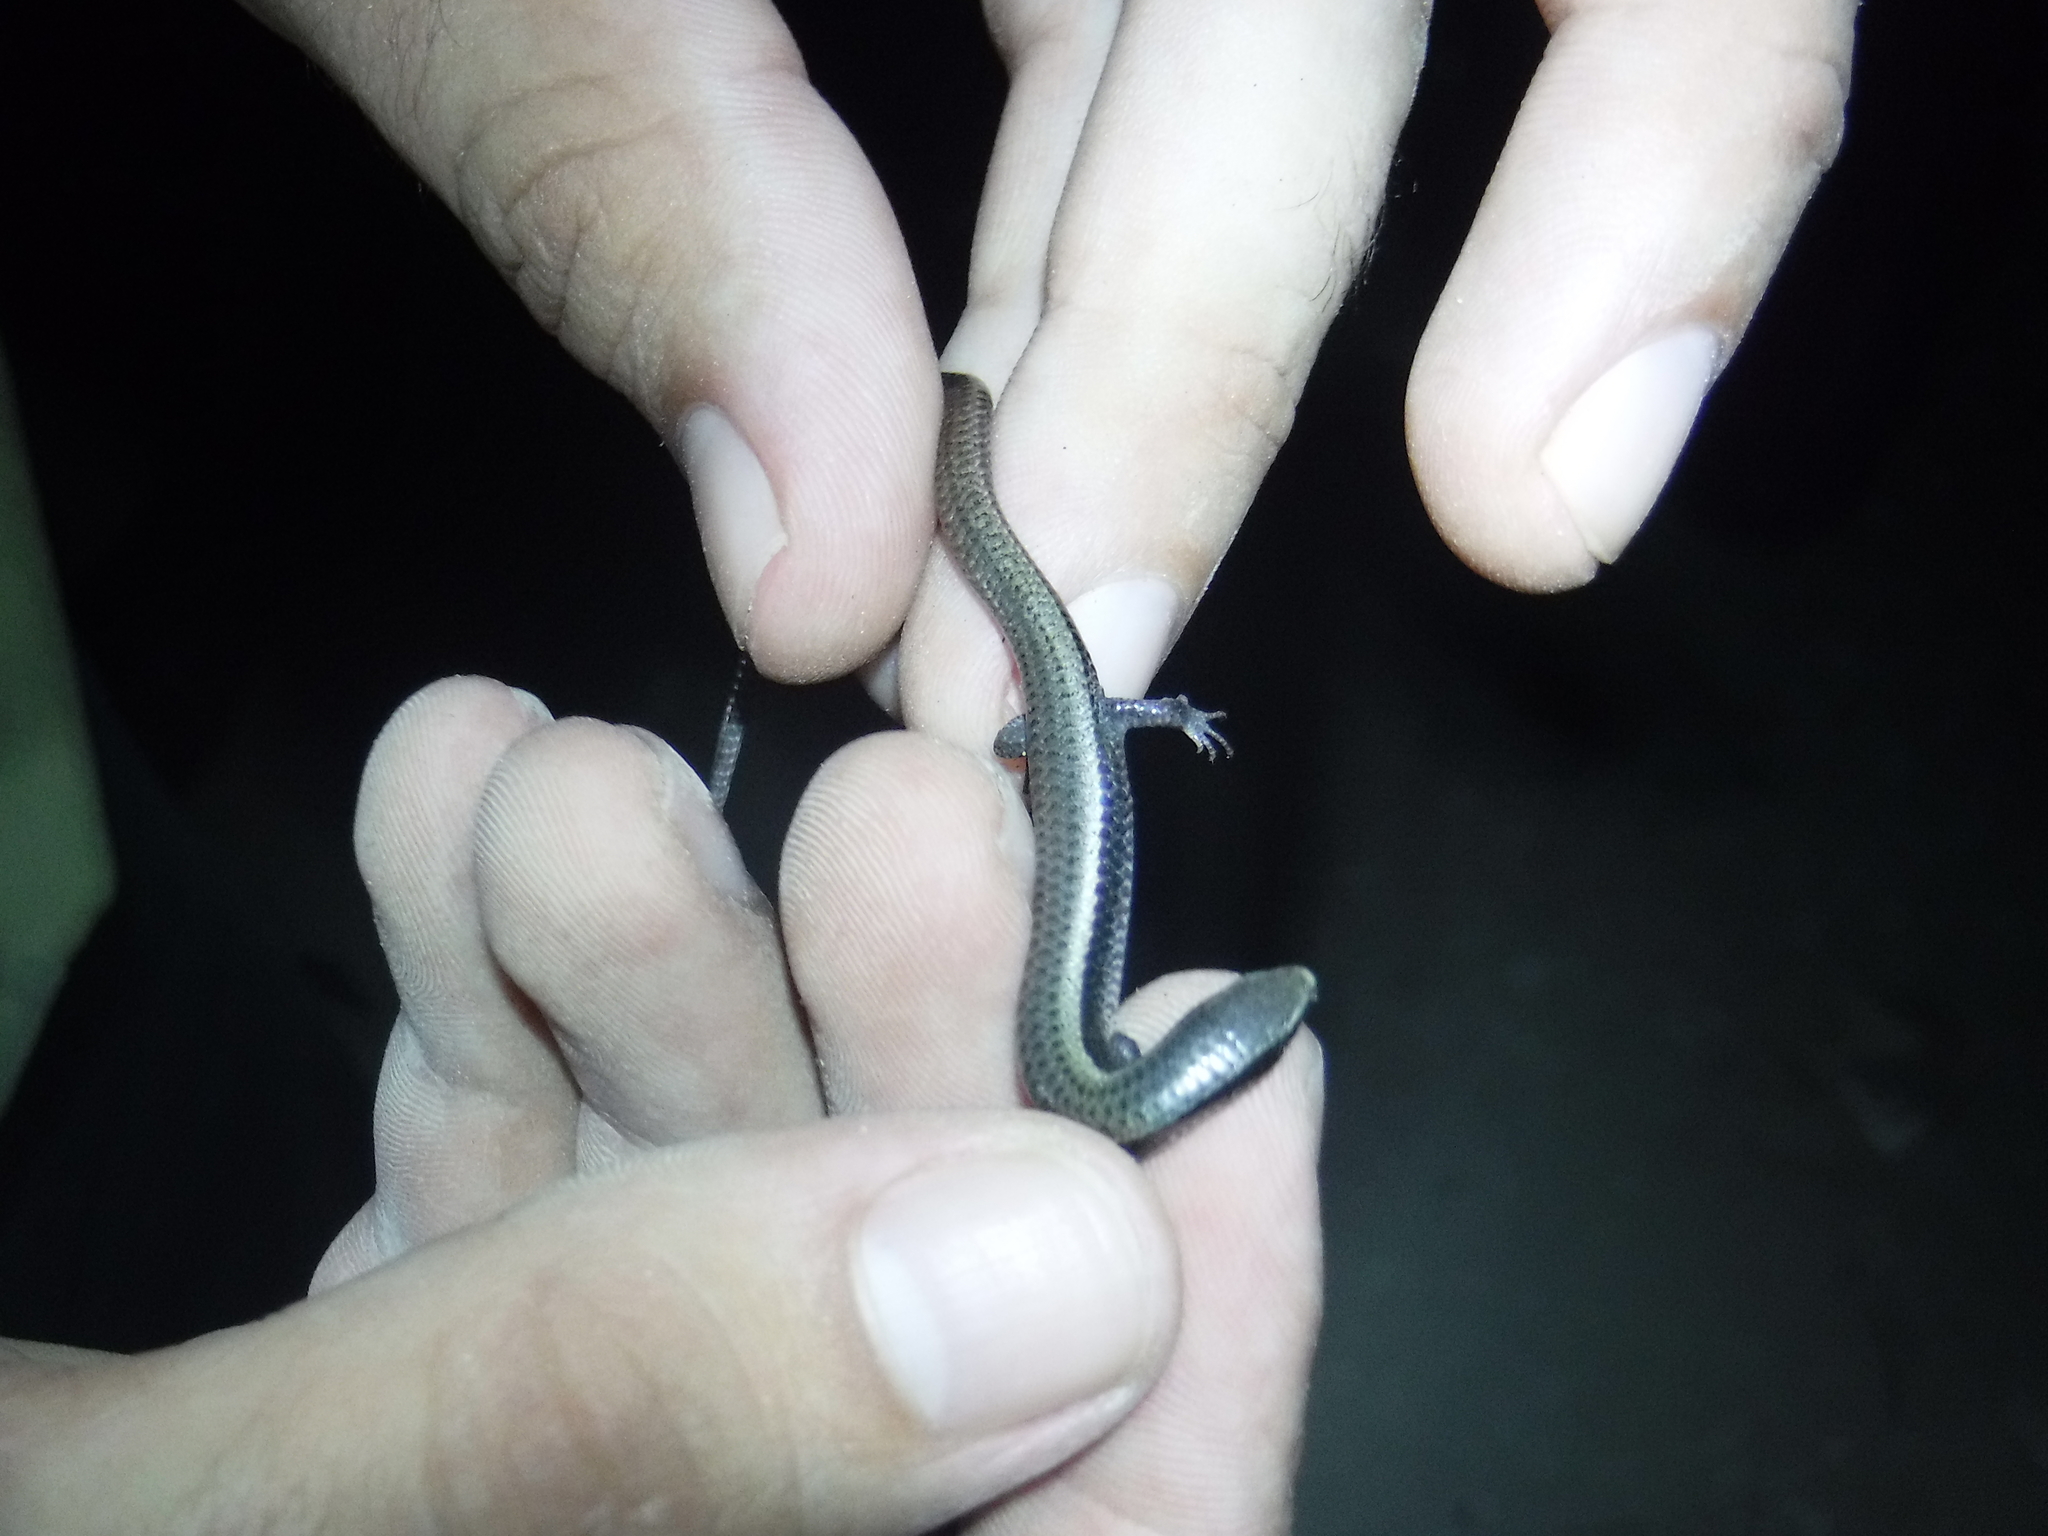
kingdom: Animalia
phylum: Chordata
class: Squamata
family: Scincidae
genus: Marisora
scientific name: Marisora brachypoda
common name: Western middle america skink
